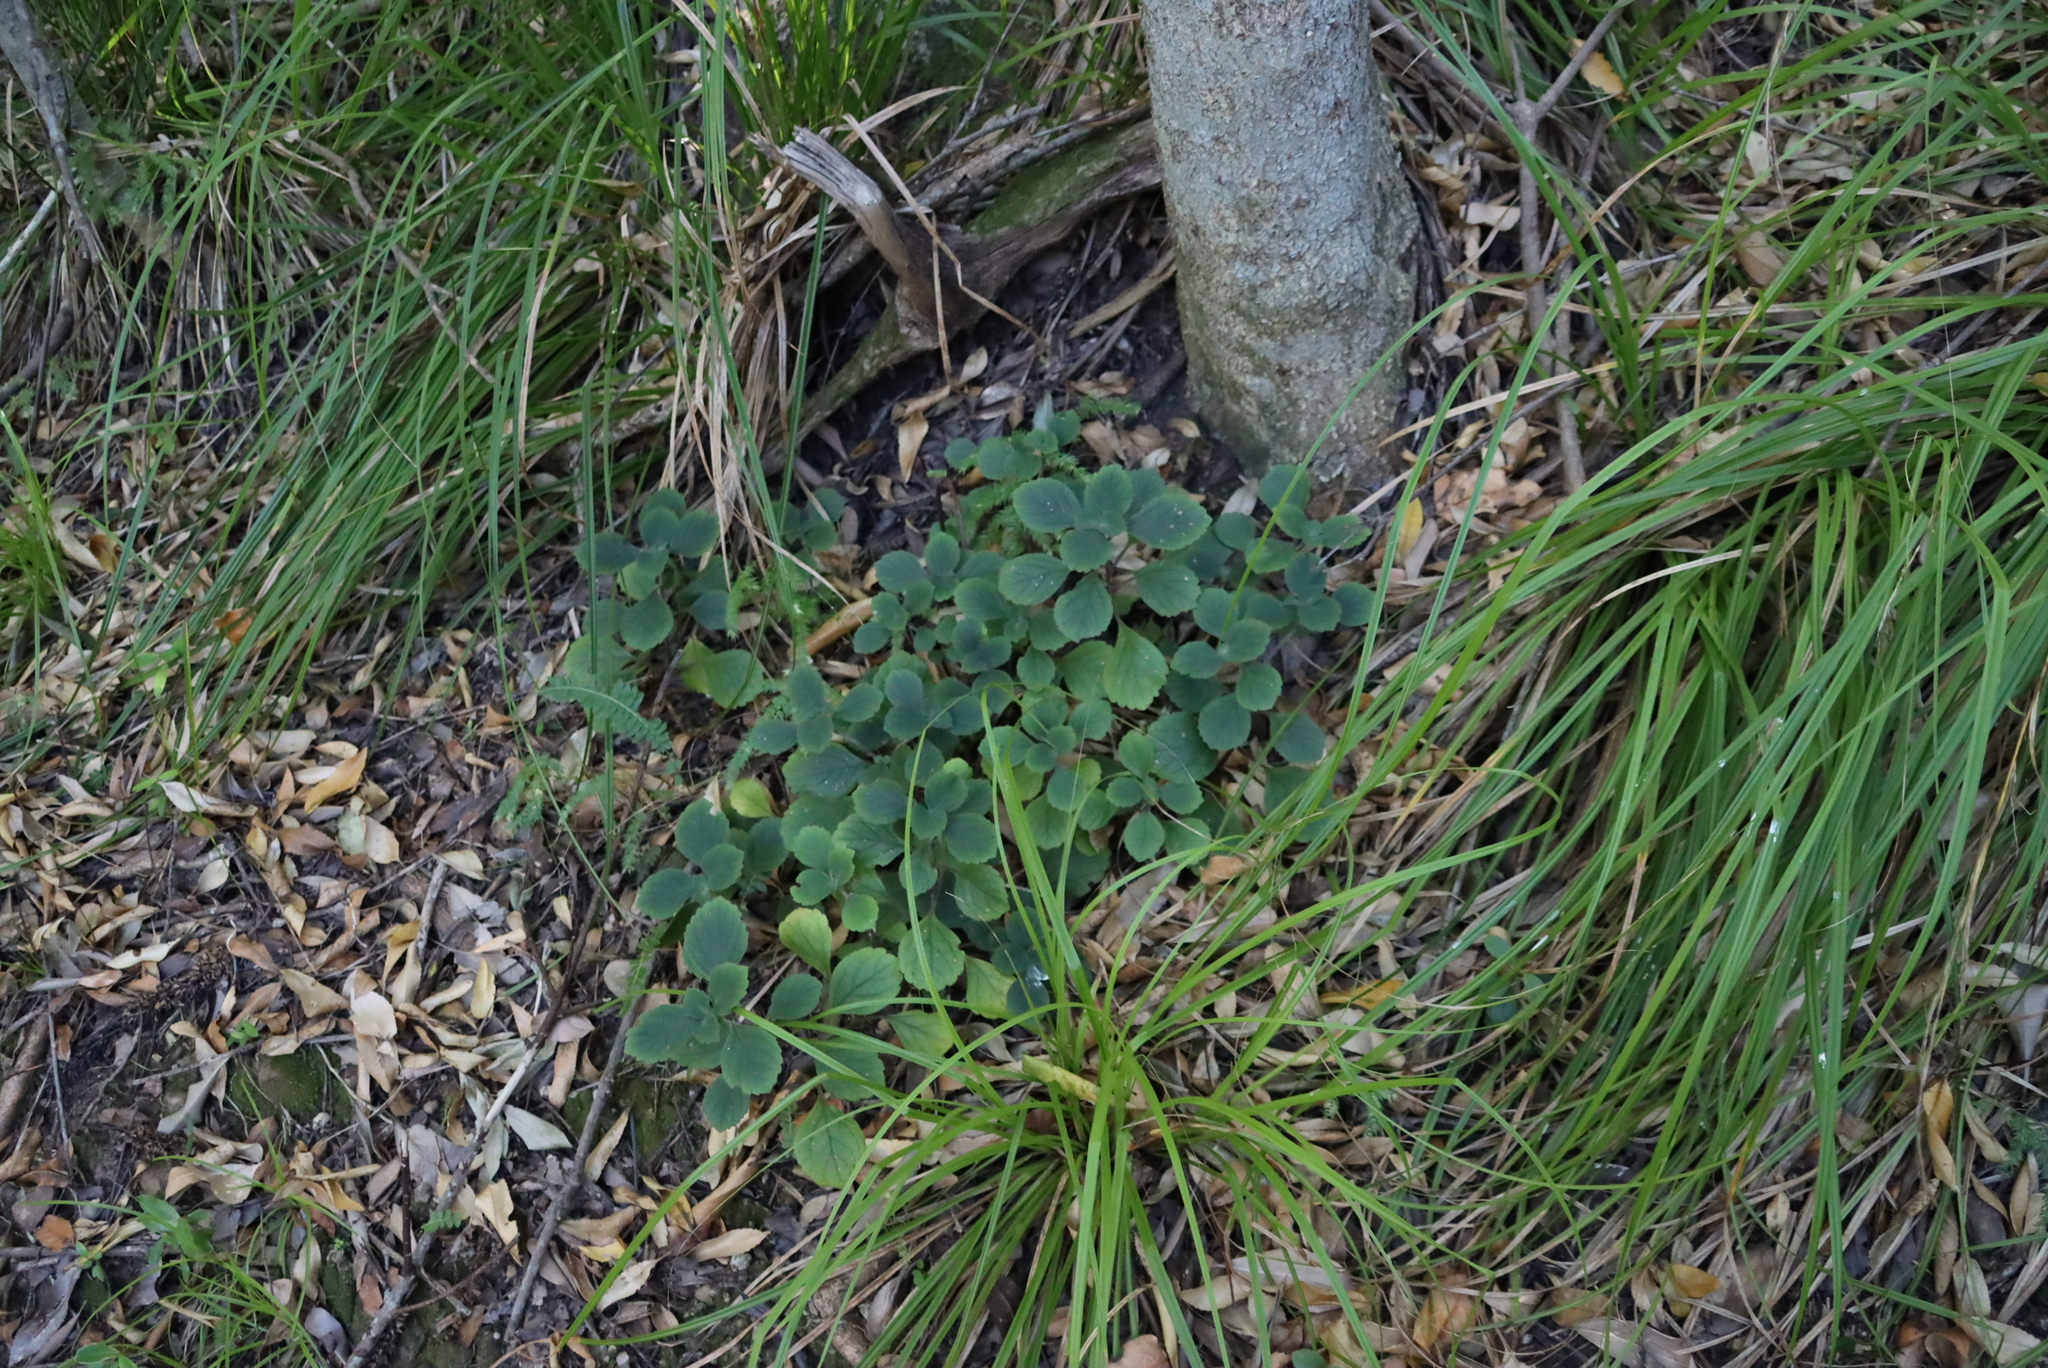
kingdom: Plantae
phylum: Tracheophyta
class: Magnoliopsida
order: Lamiales
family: Lamiaceae
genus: Plectranthus
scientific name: Plectranthus malvinus
